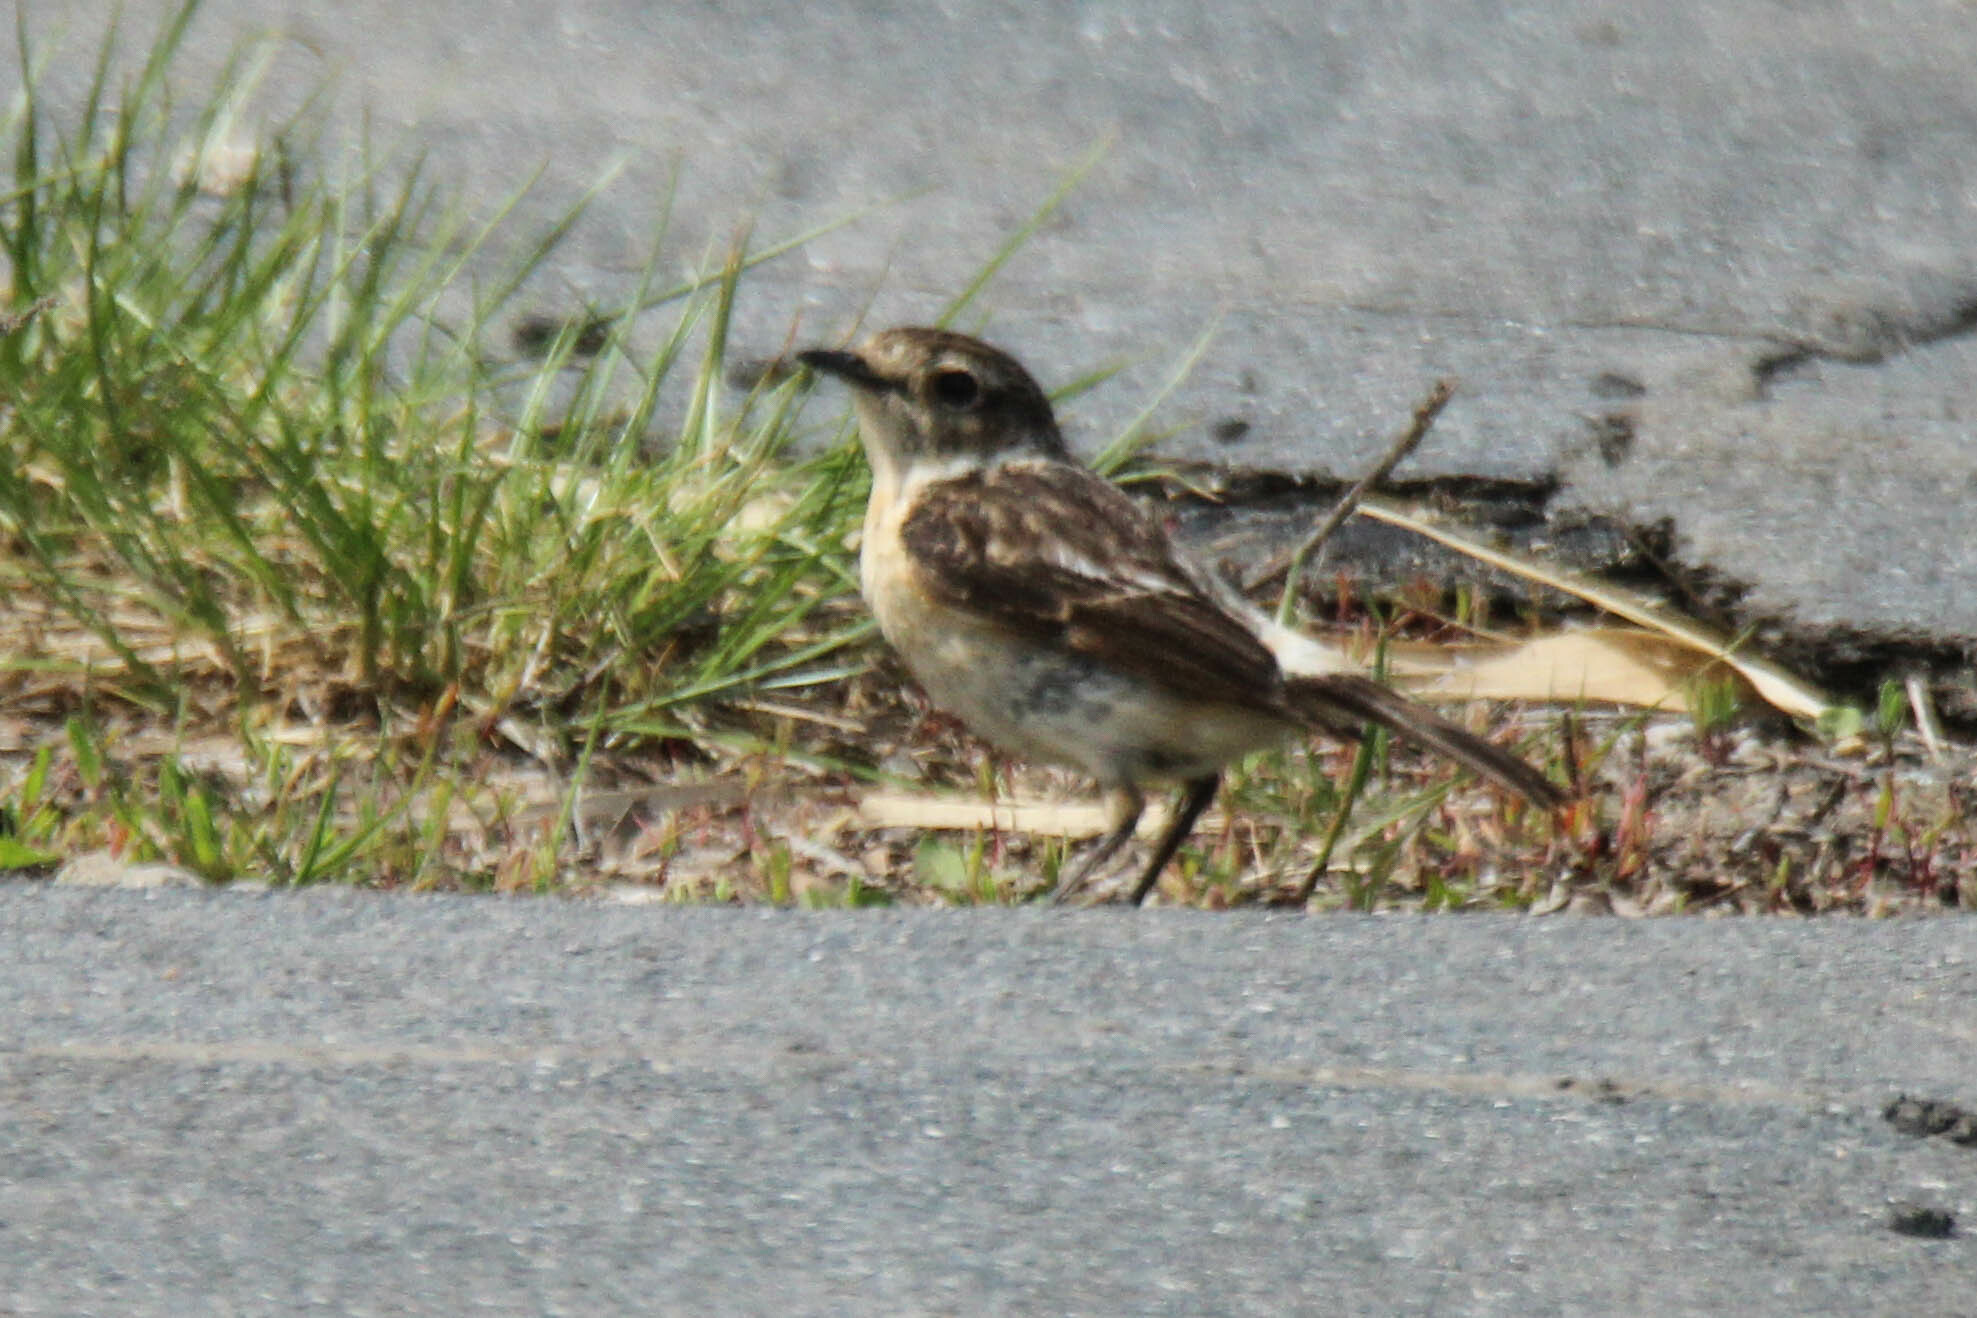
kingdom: Animalia
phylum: Chordata
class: Aves
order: Passeriformes
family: Muscicapidae
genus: Saxicola
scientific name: Saxicola stejnegeri
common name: Stejneger's stonechat
